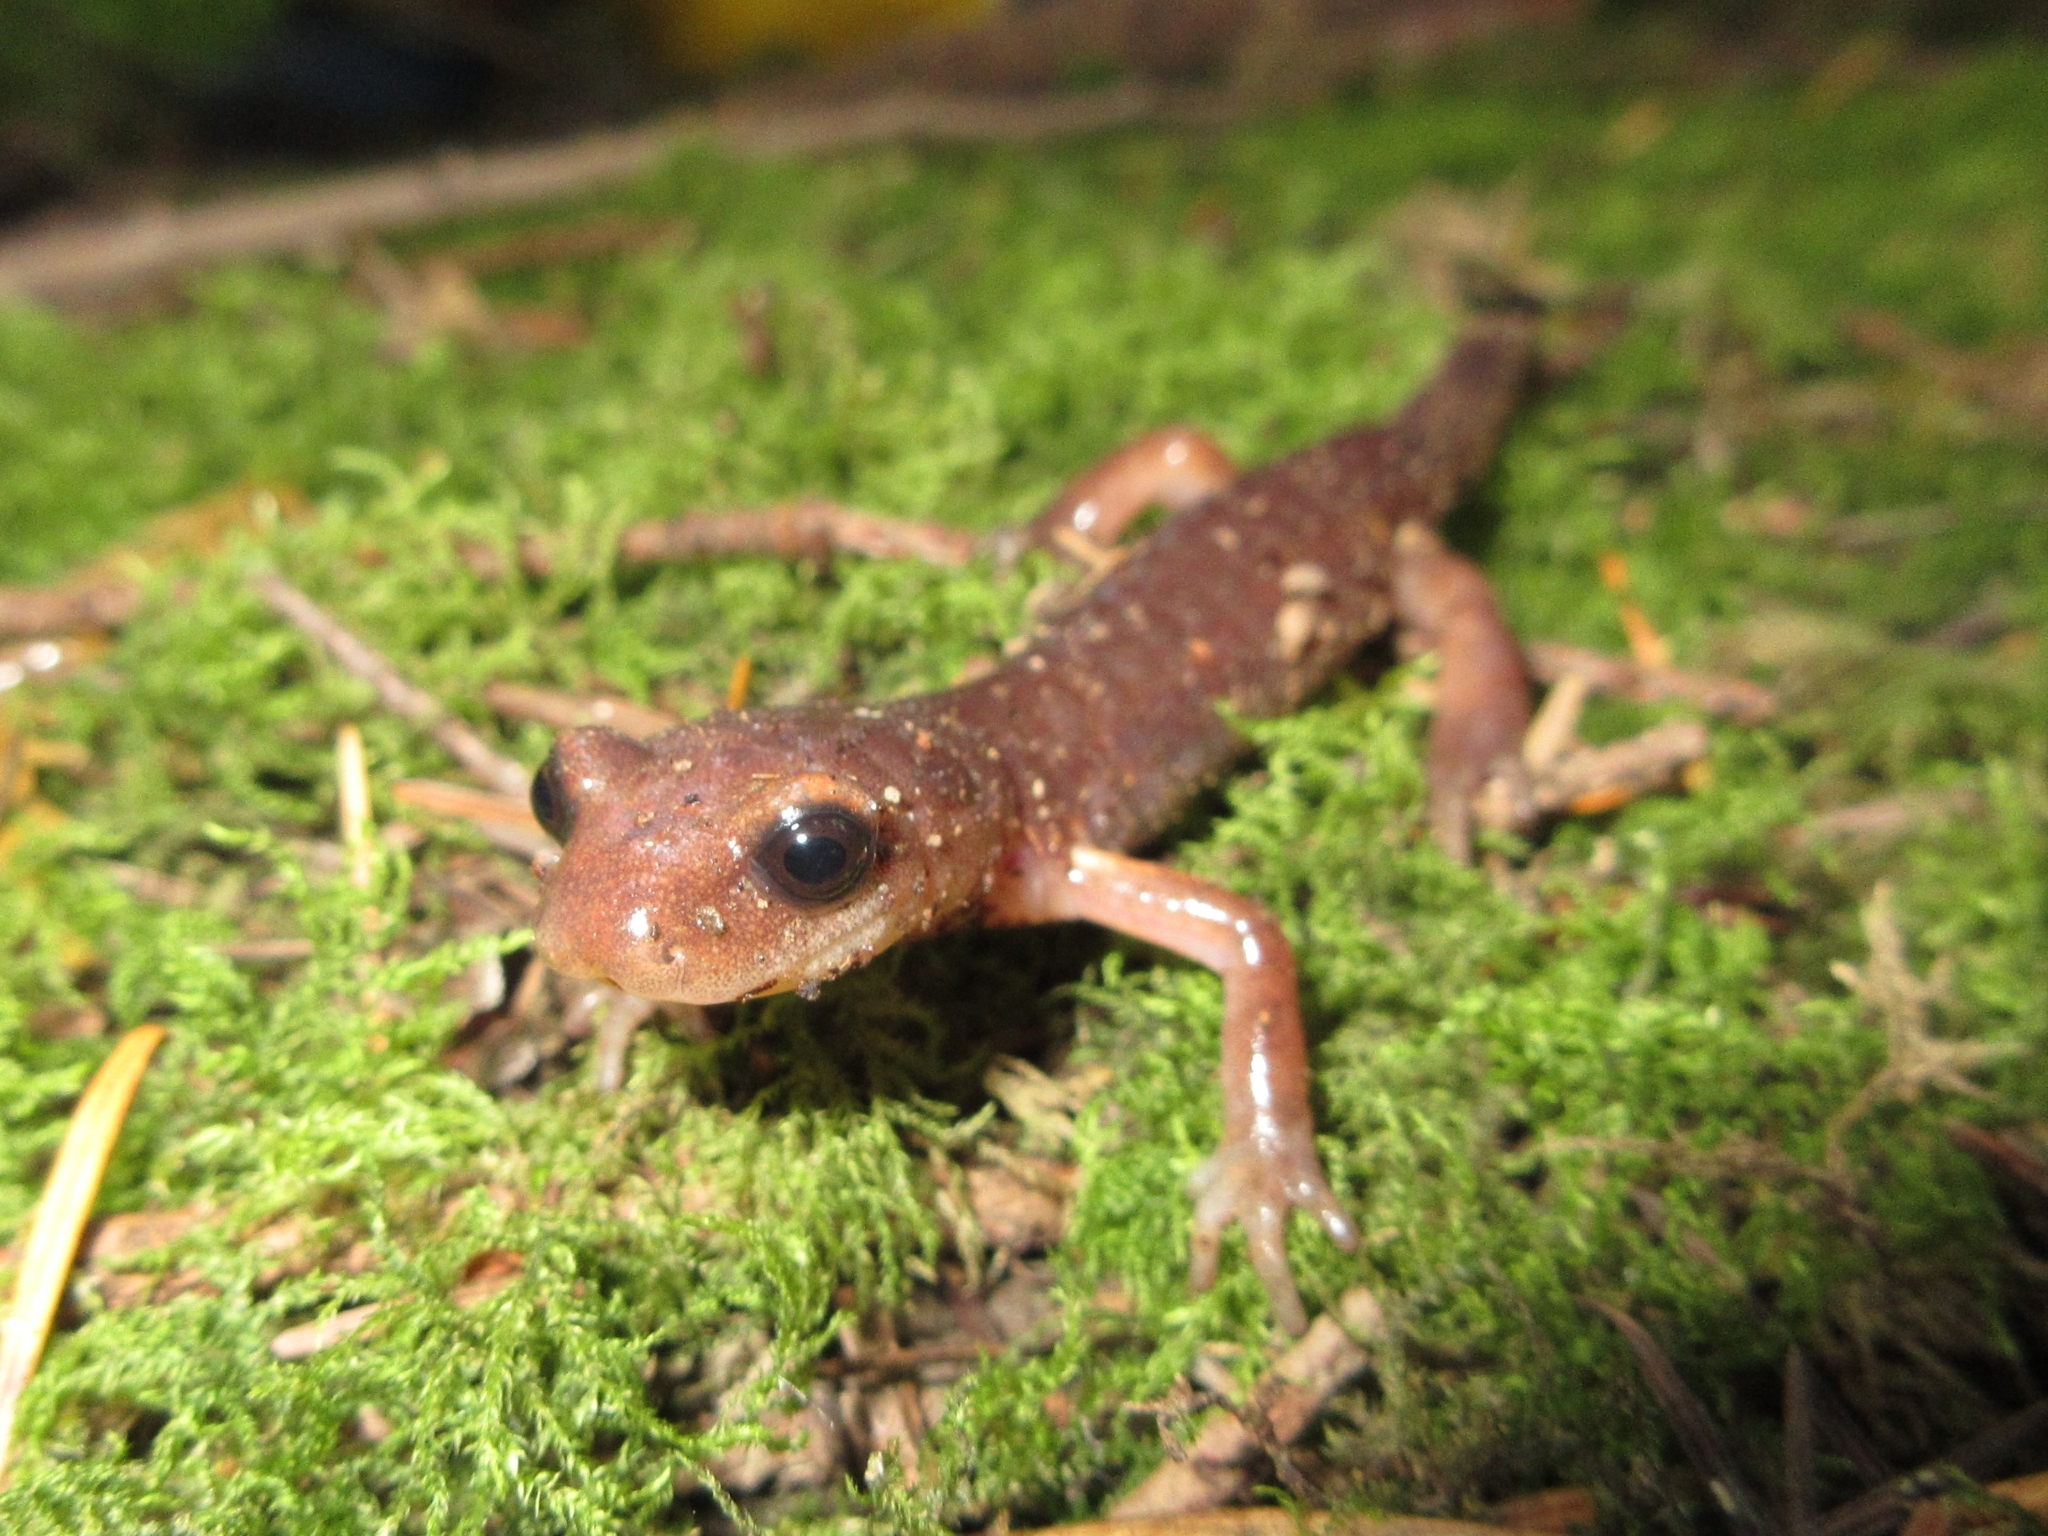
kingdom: Animalia
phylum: Chordata
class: Amphibia
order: Caudata
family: Plethodontidae
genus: Ensatina
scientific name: Ensatina eschscholtzii
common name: Ensatina
